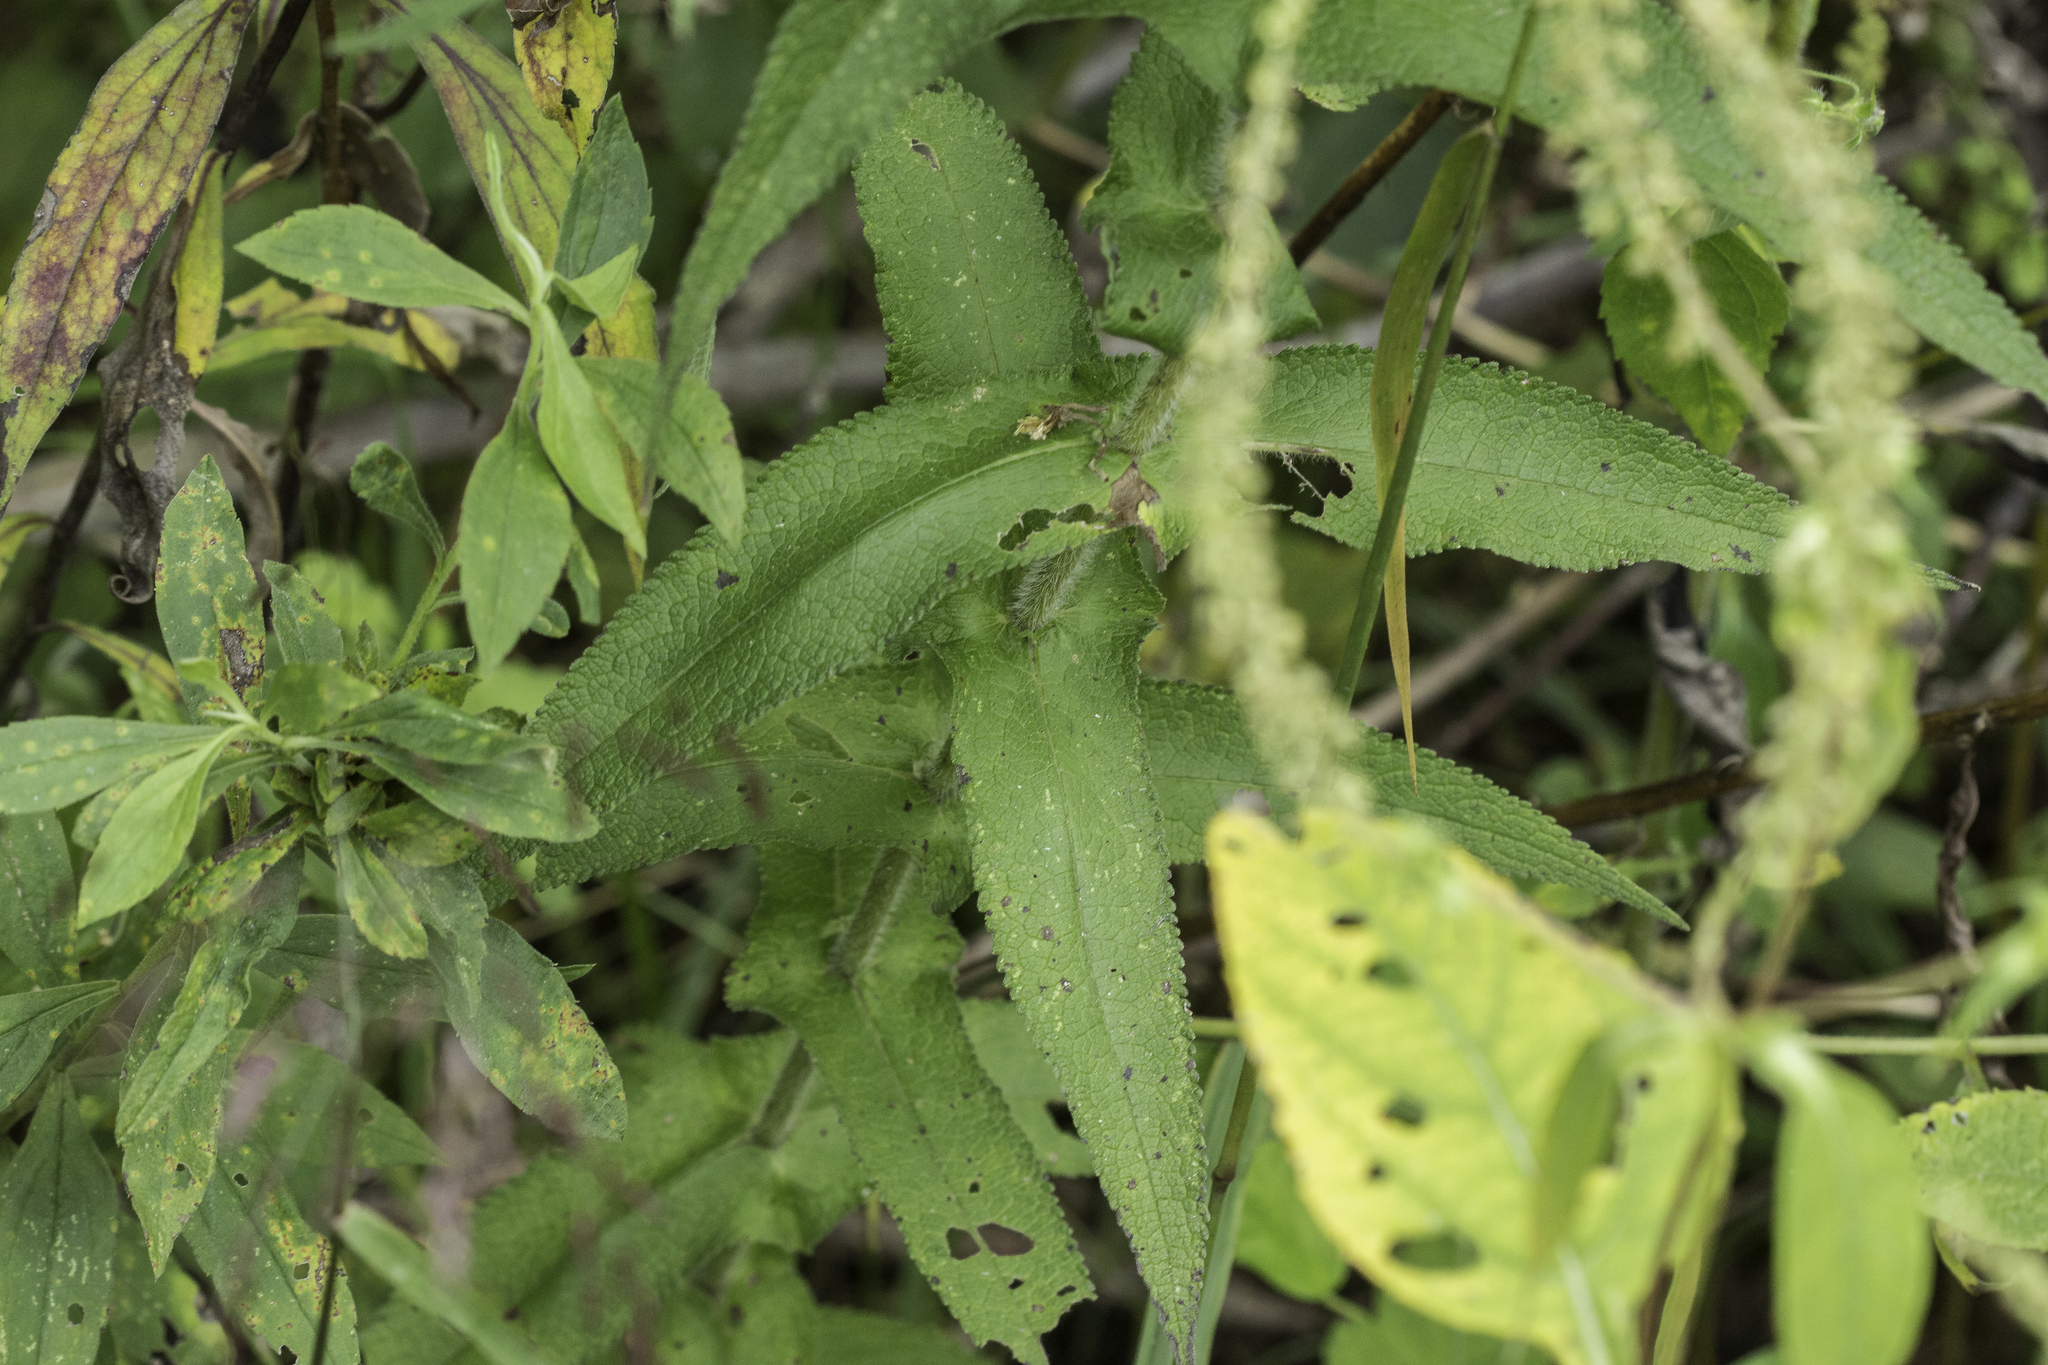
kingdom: Plantae
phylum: Tracheophyta
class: Magnoliopsida
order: Asterales
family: Asteraceae
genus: Eupatorium
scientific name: Eupatorium perfoliatum
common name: Boneset
